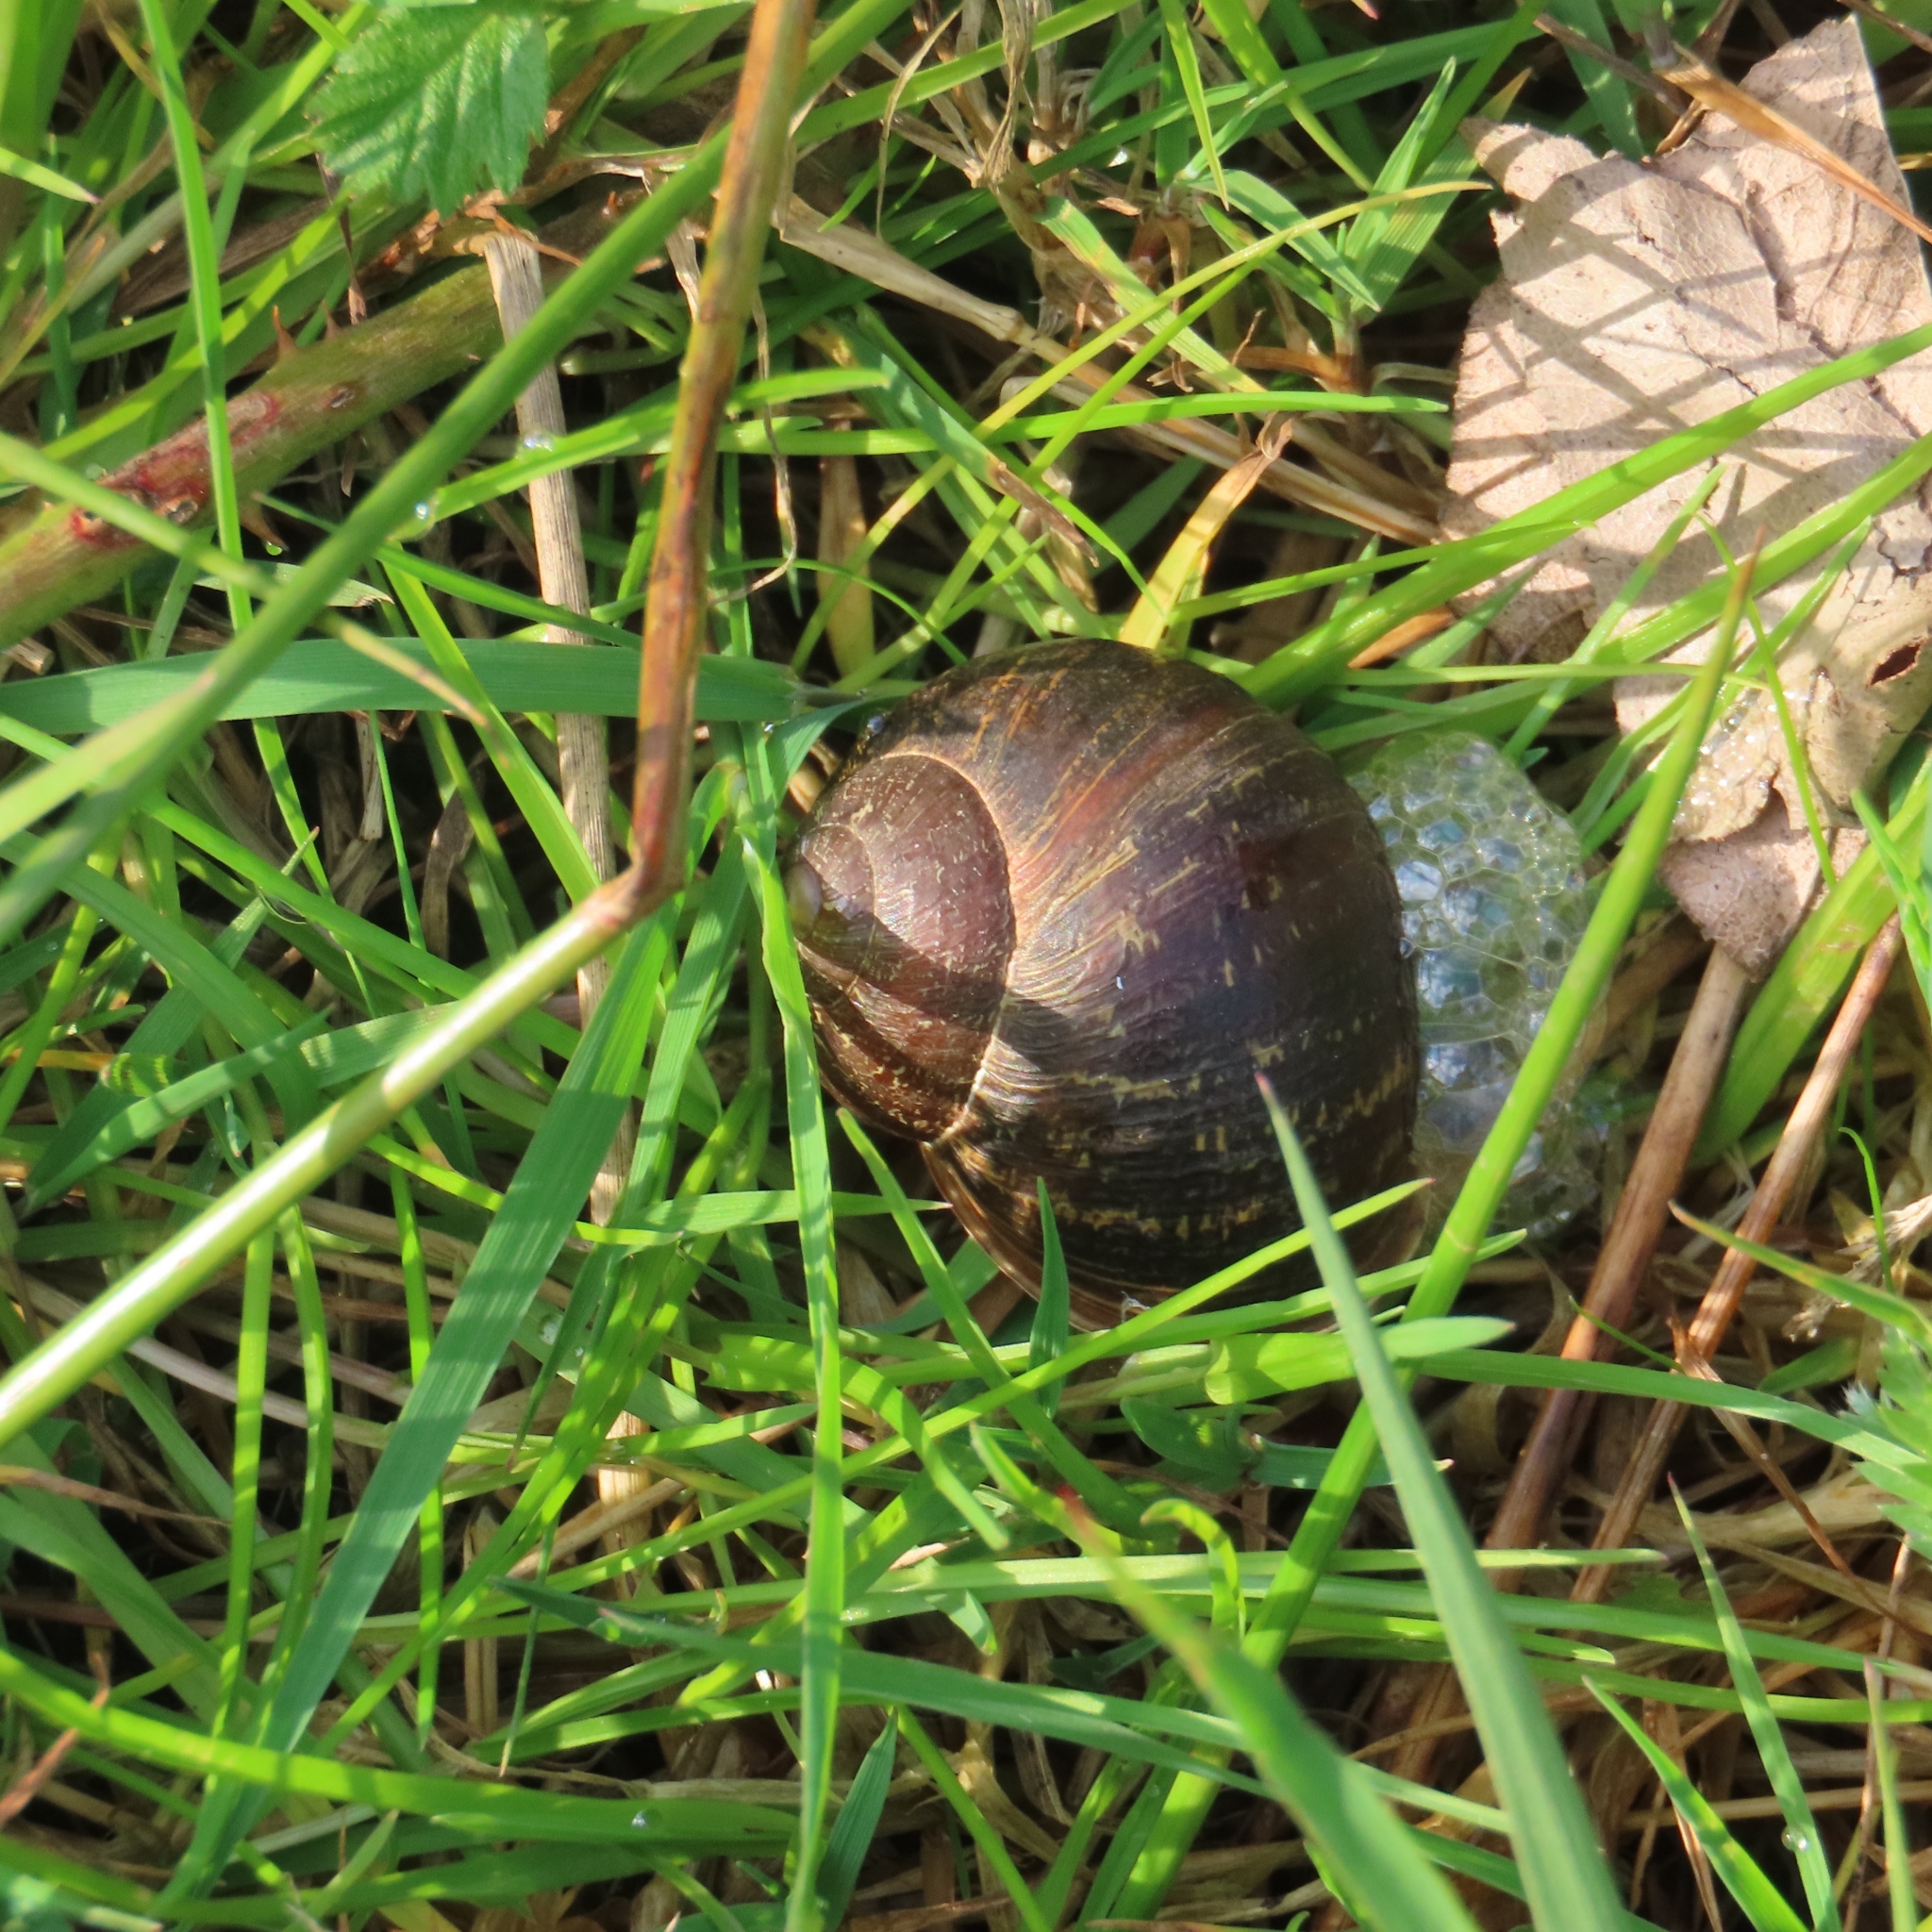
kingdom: Animalia
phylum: Mollusca
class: Gastropoda
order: Stylommatophora
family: Helicidae
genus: Cornu
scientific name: Cornu aspersum
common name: Brown garden snail
